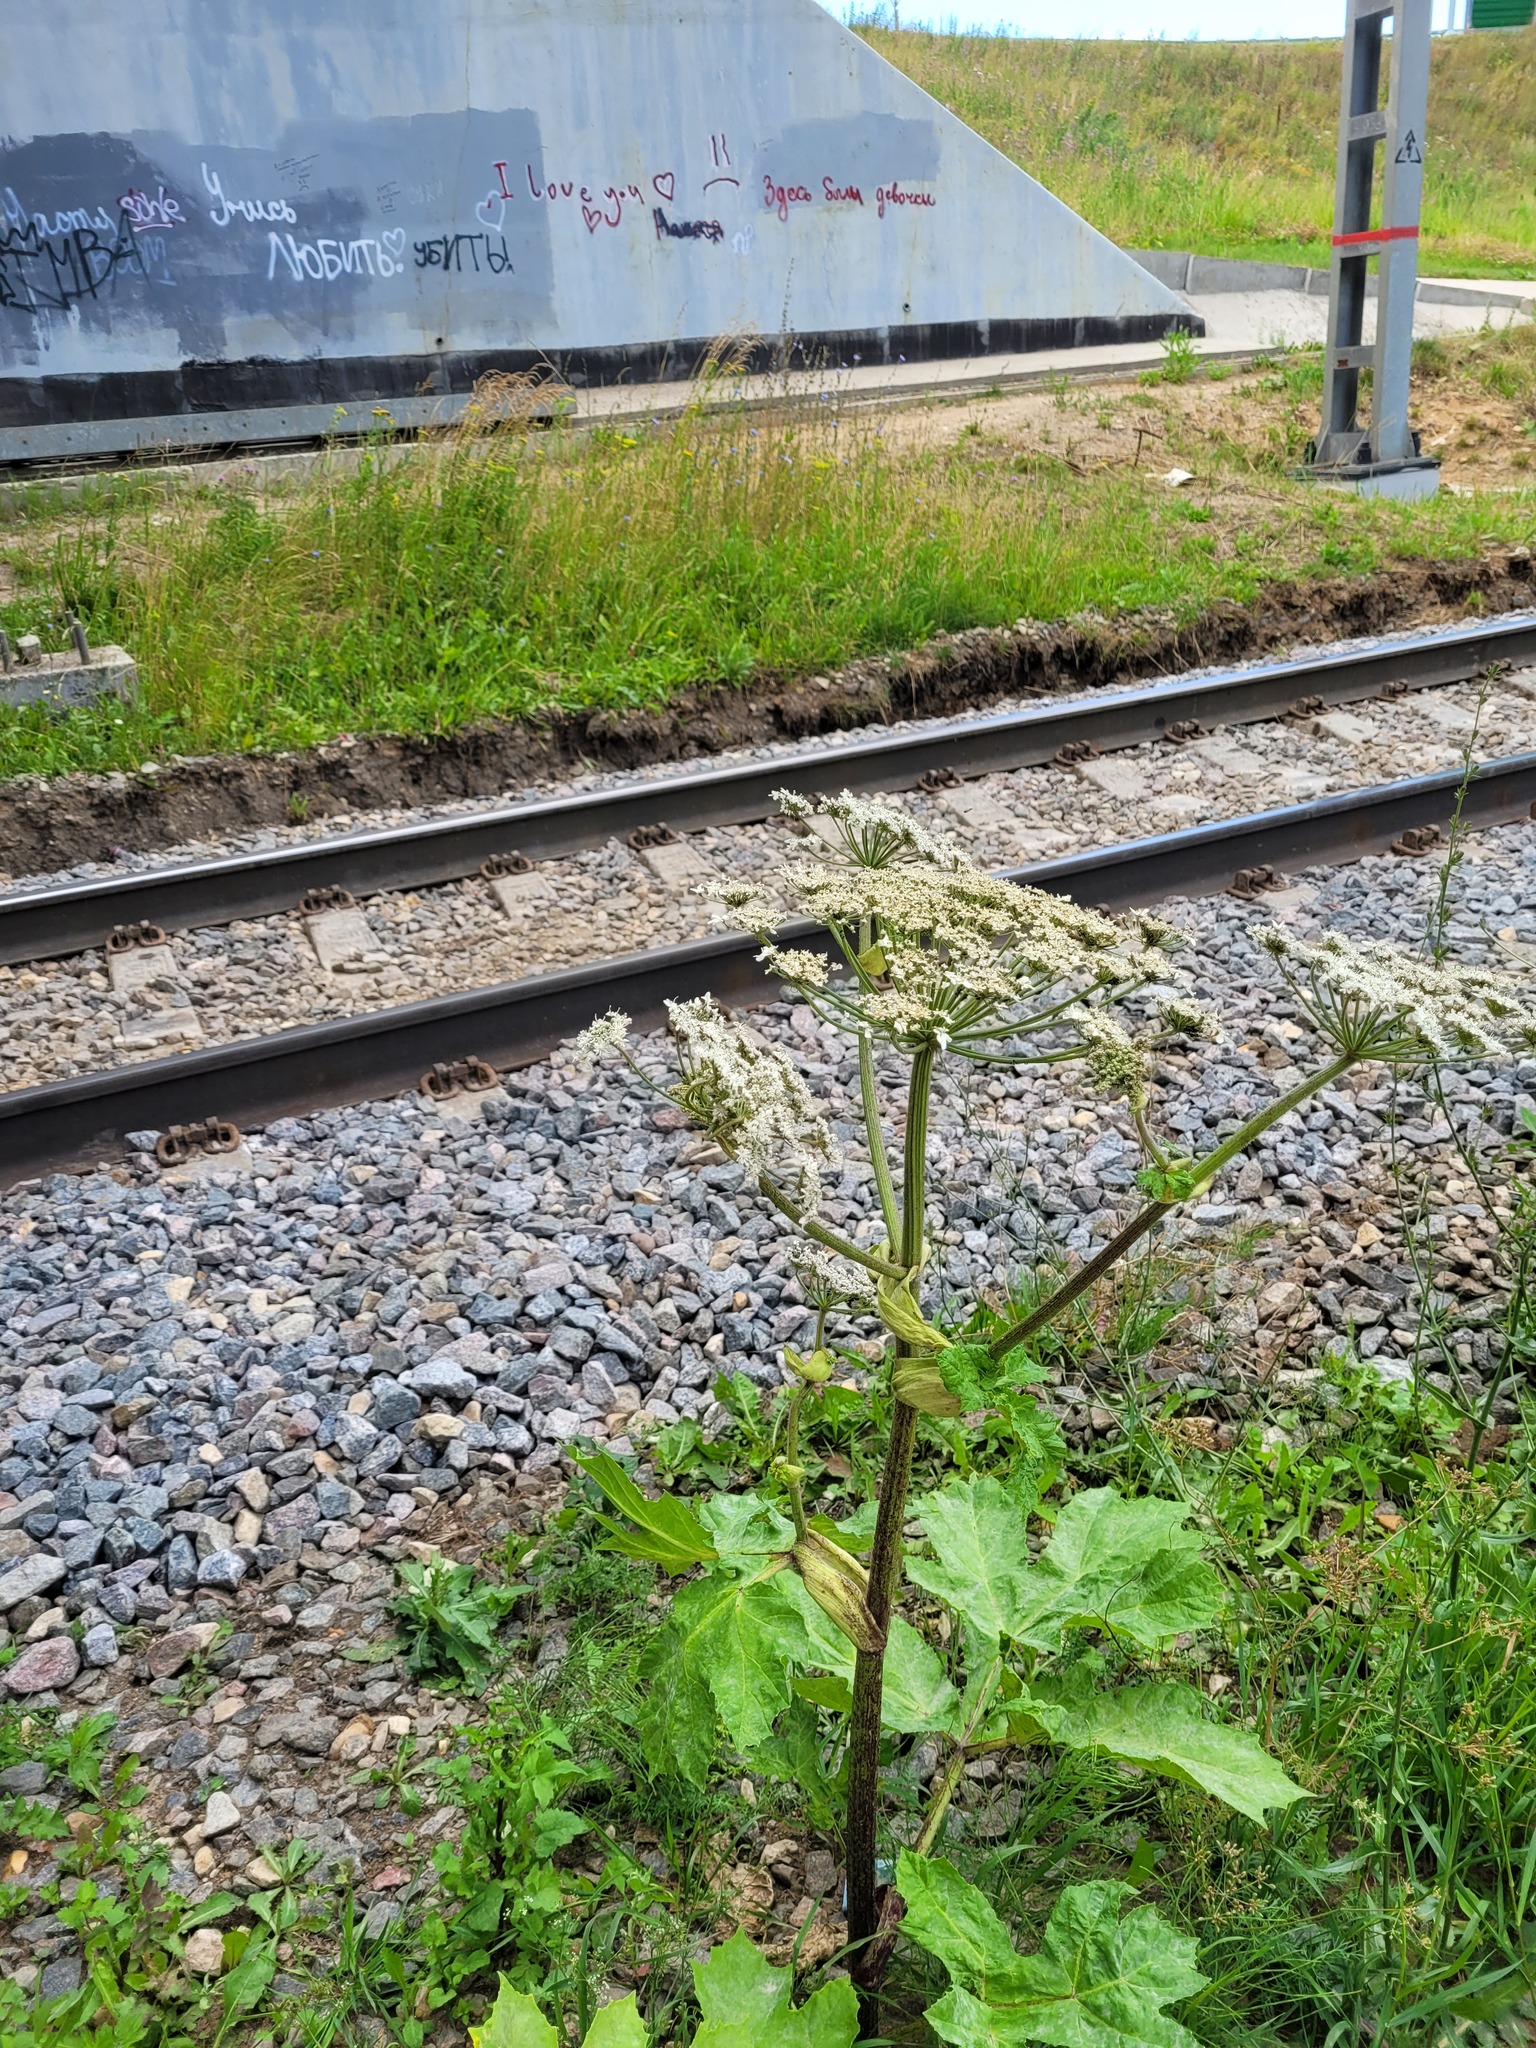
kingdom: Plantae
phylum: Tracheophyta
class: Magnoliopsida
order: Apiales
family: Apiaceae
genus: Heracleum
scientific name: Heracleum sosnowskyi
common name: Sosnowsky's hogweed
